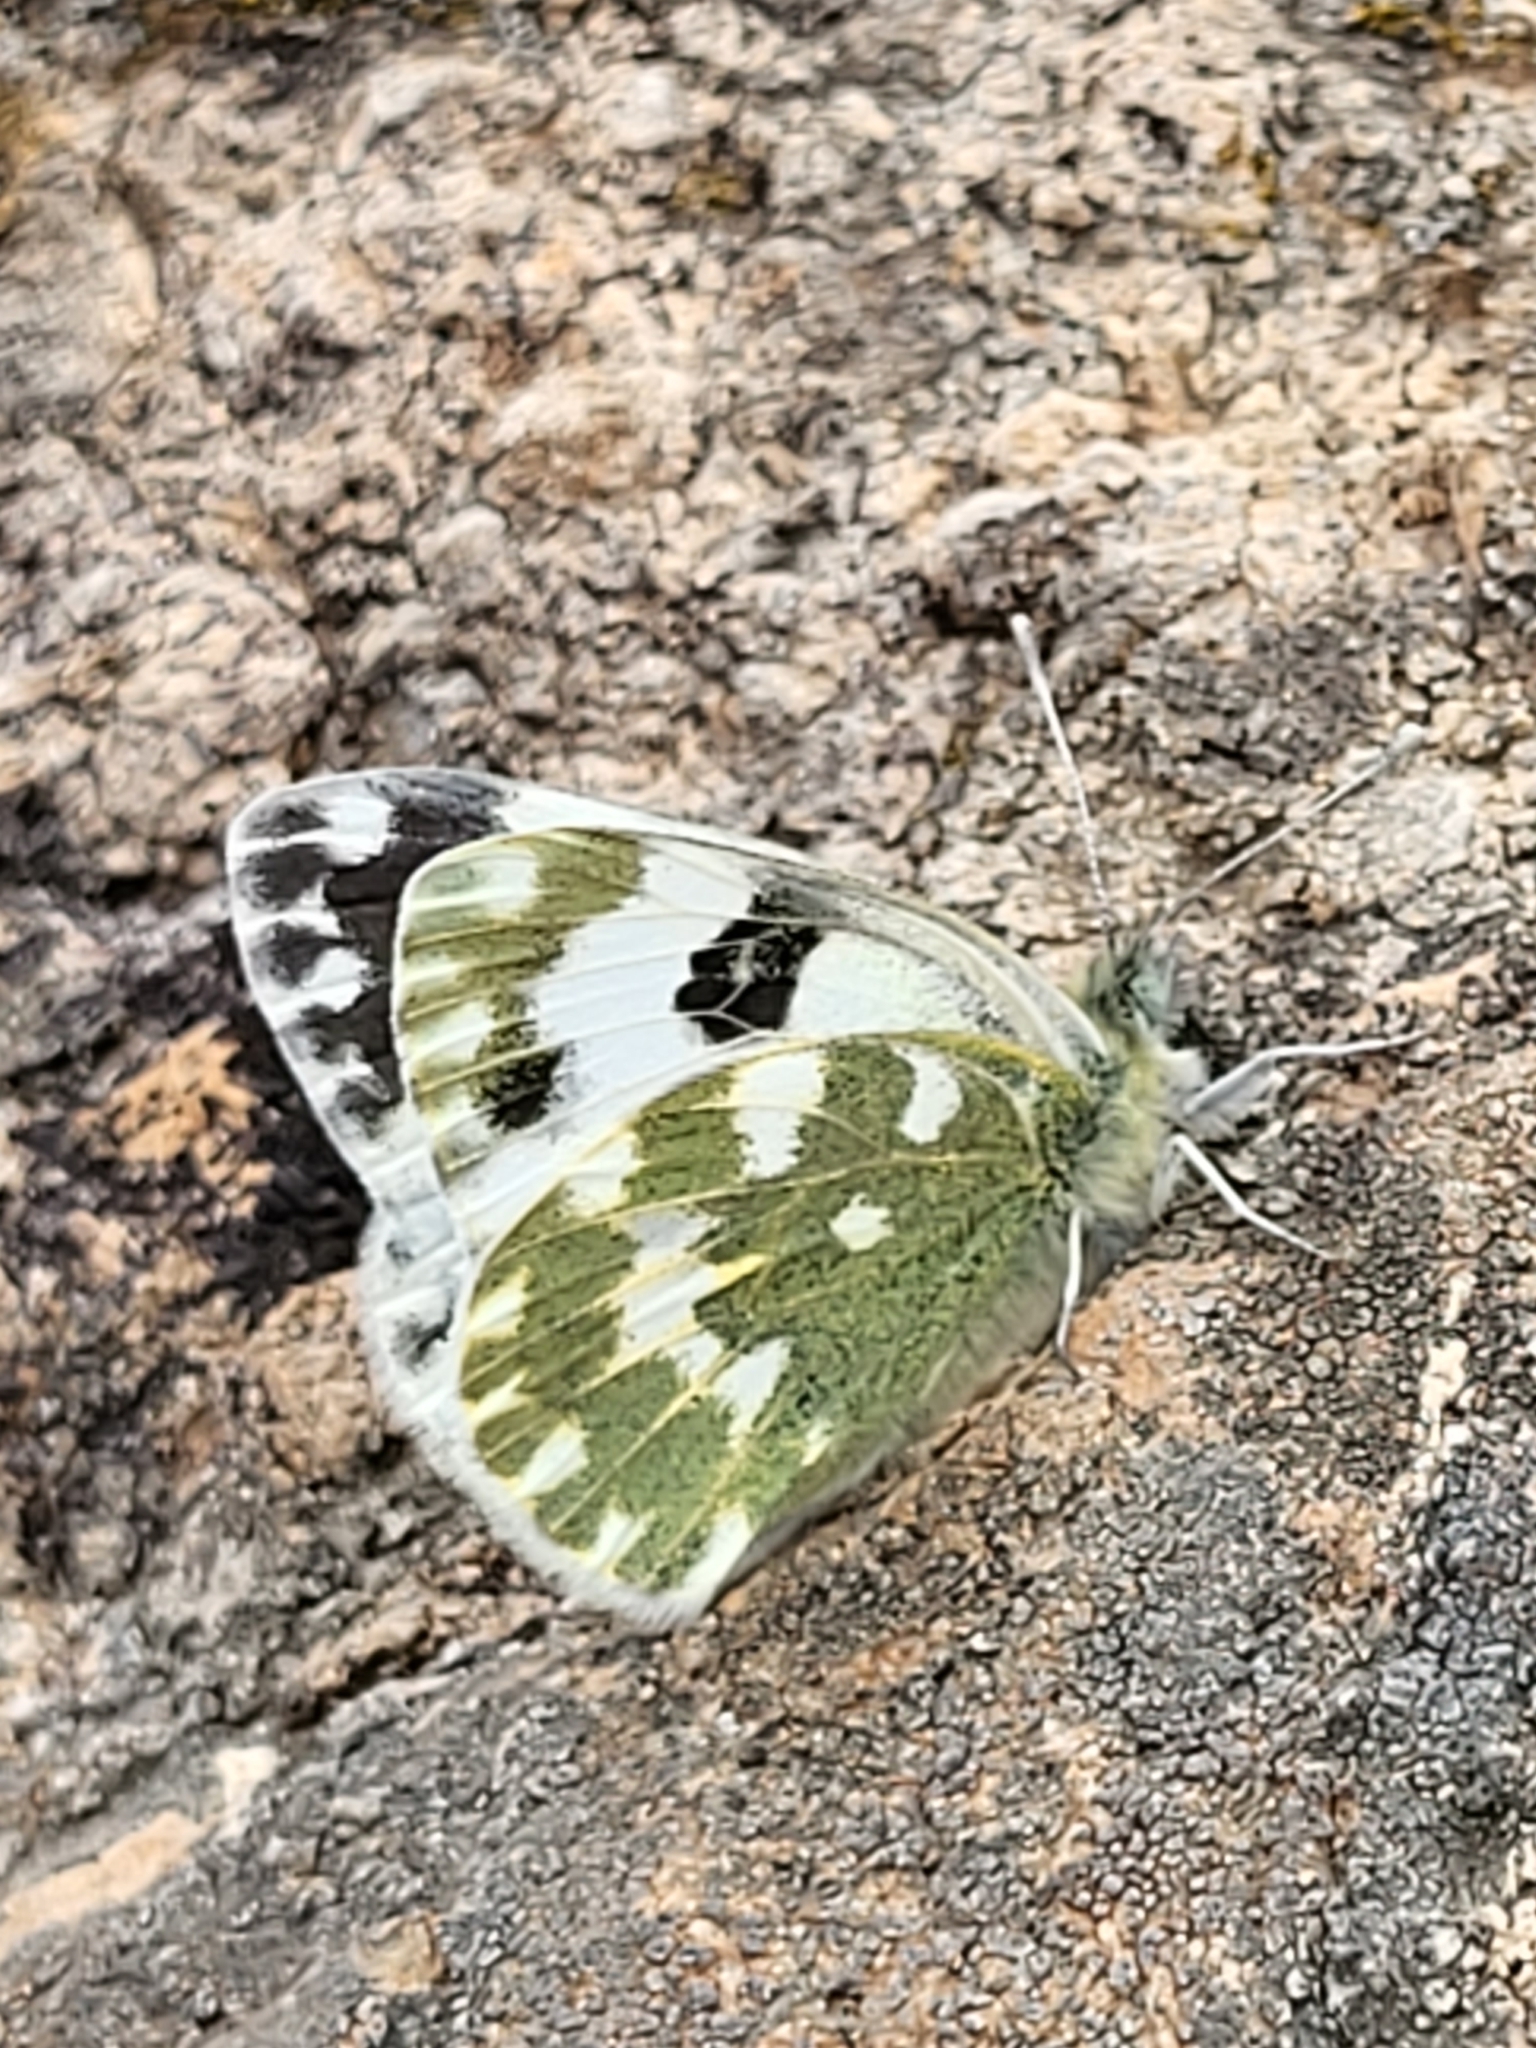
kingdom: Animalia
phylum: Arthropoda
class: Insecta
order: Lepidoptera
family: Pieridae
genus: Pontia
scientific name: Pontia daplidice
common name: Bath white
